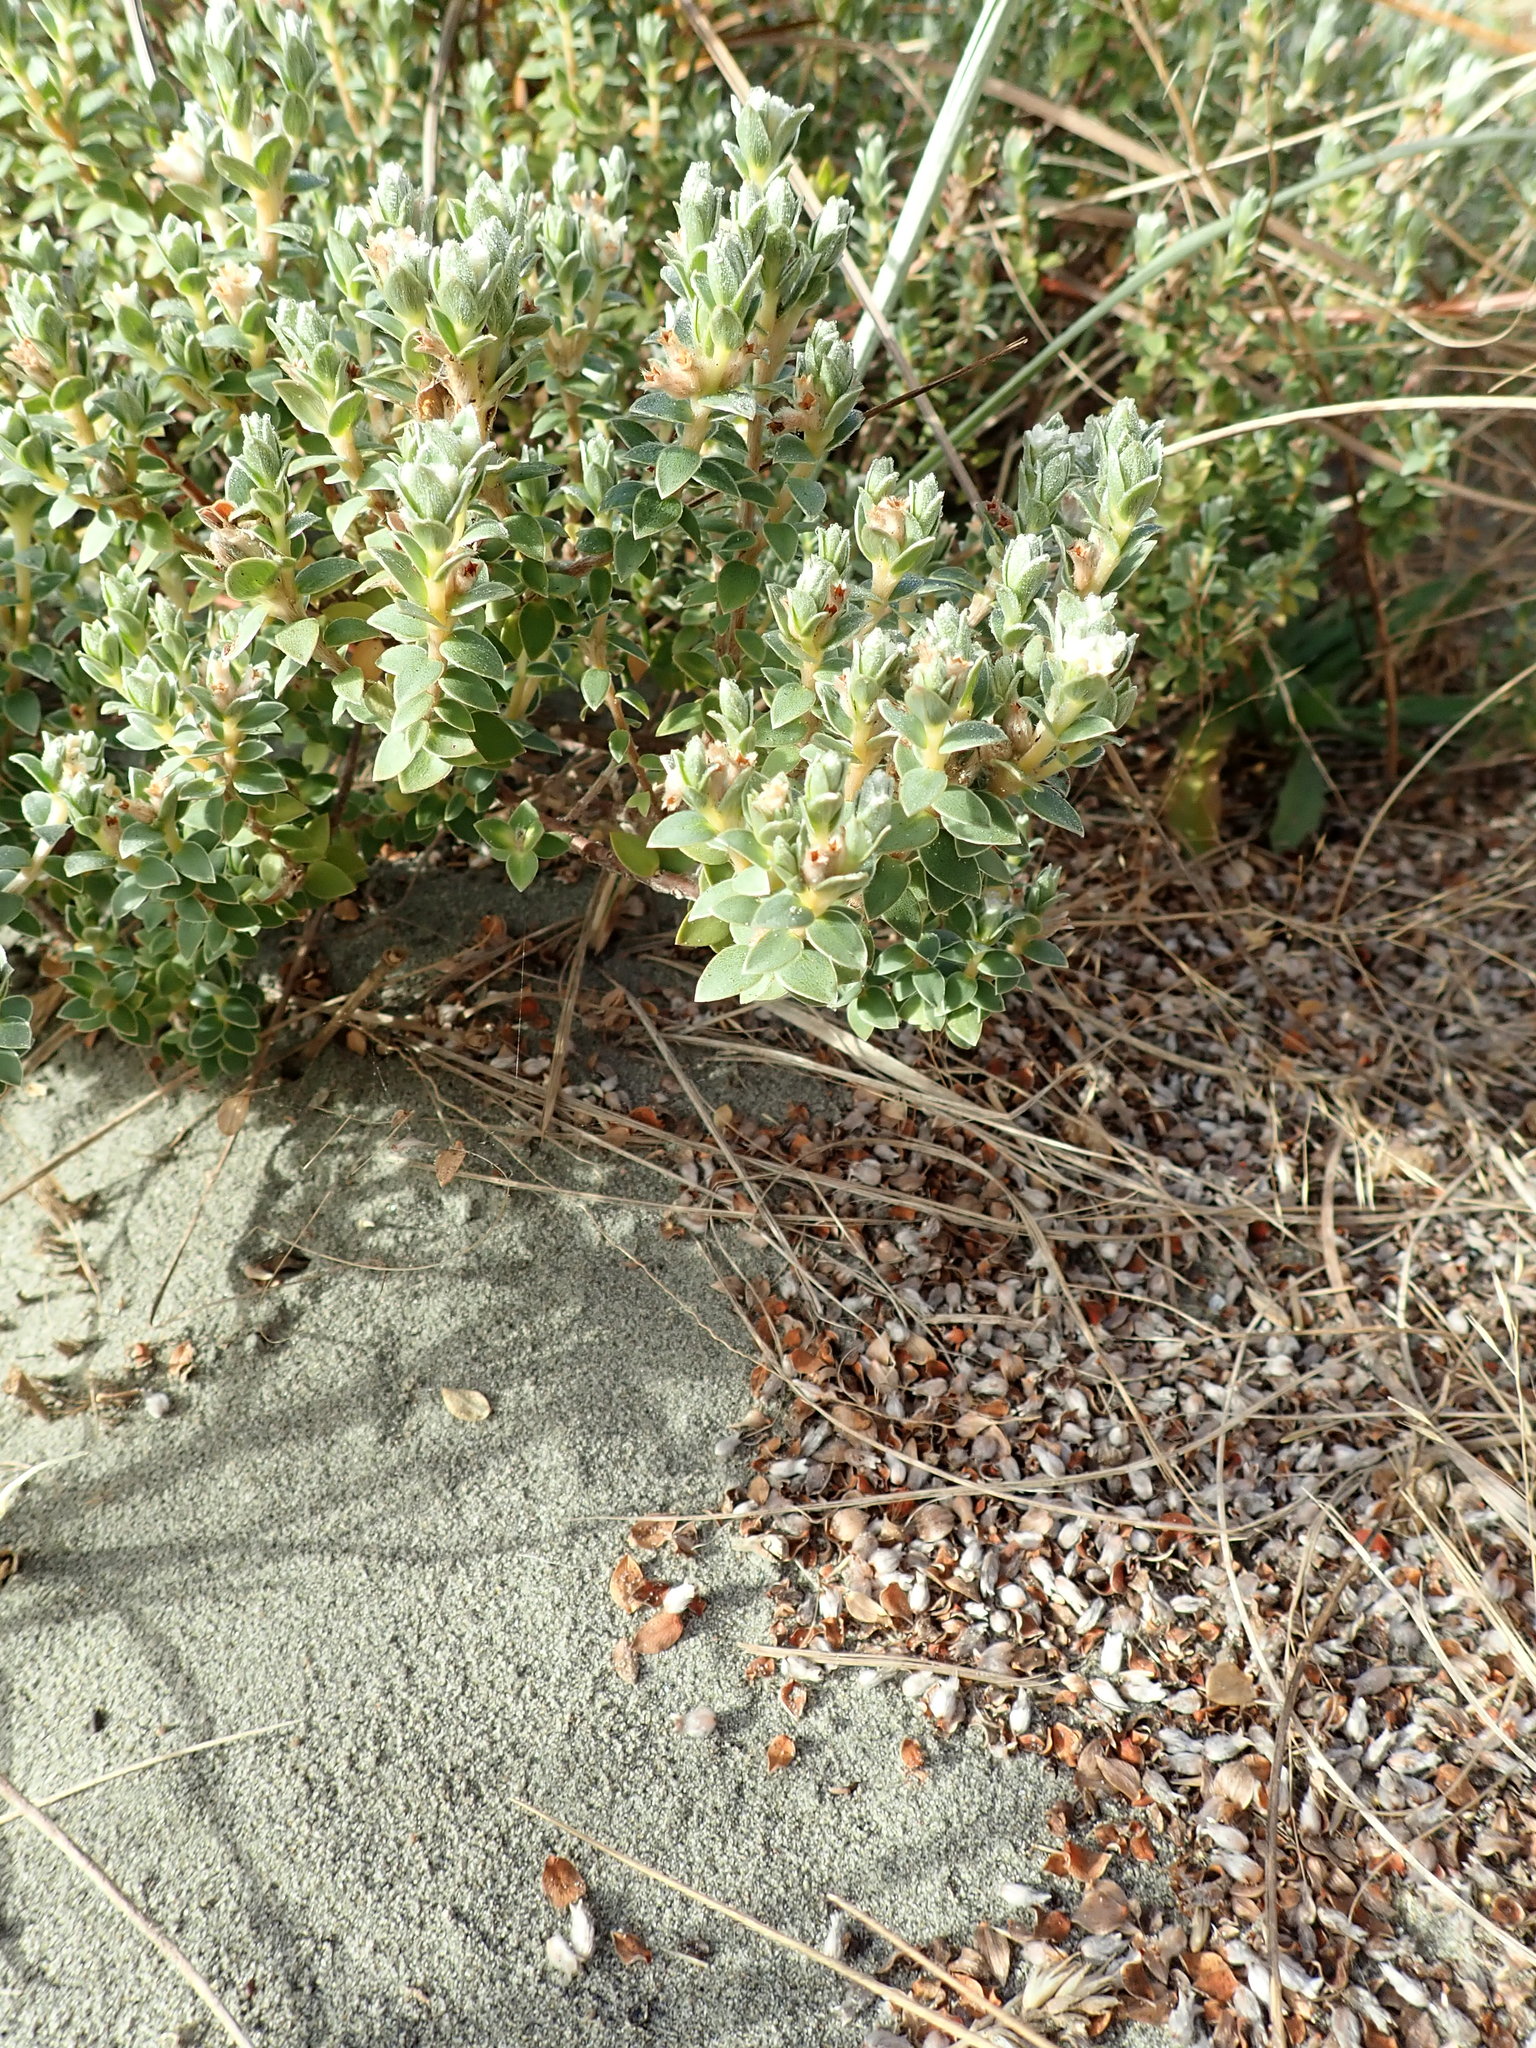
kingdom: Plantae
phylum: Tracheophyta
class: Magnoliopsida
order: Malvales
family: Thymelaeaceae
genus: Pimelea
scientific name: Pimelea villosa
